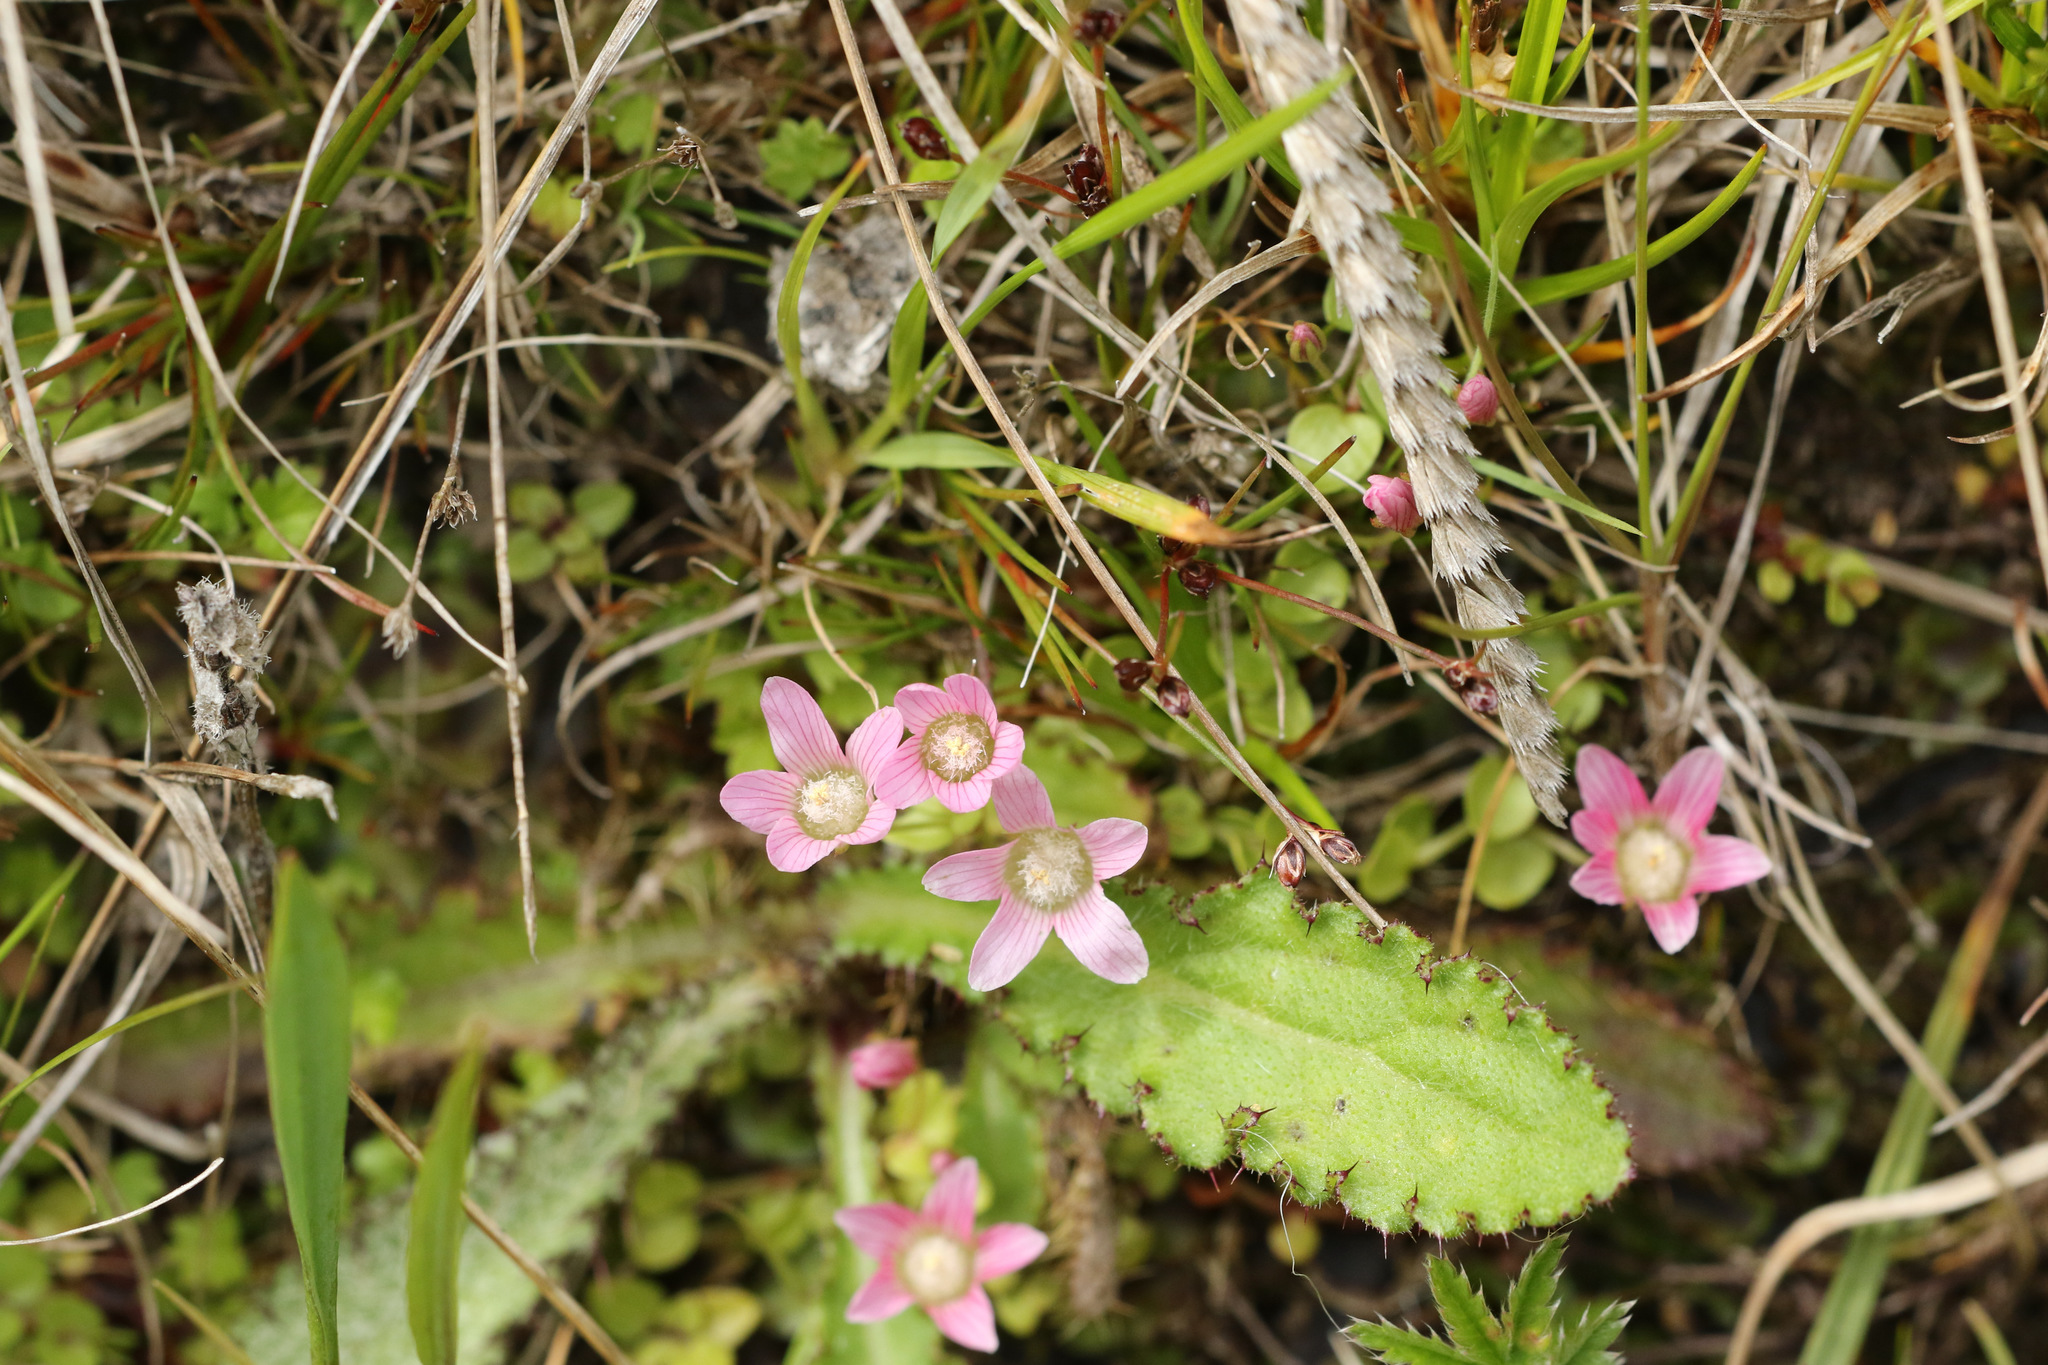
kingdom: Plantae
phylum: Tracheophyta
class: Magnoliopsida
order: Ericales
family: Primulaceae
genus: Lysimachia
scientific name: Lysimachia tenella
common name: European bog pimpernel
